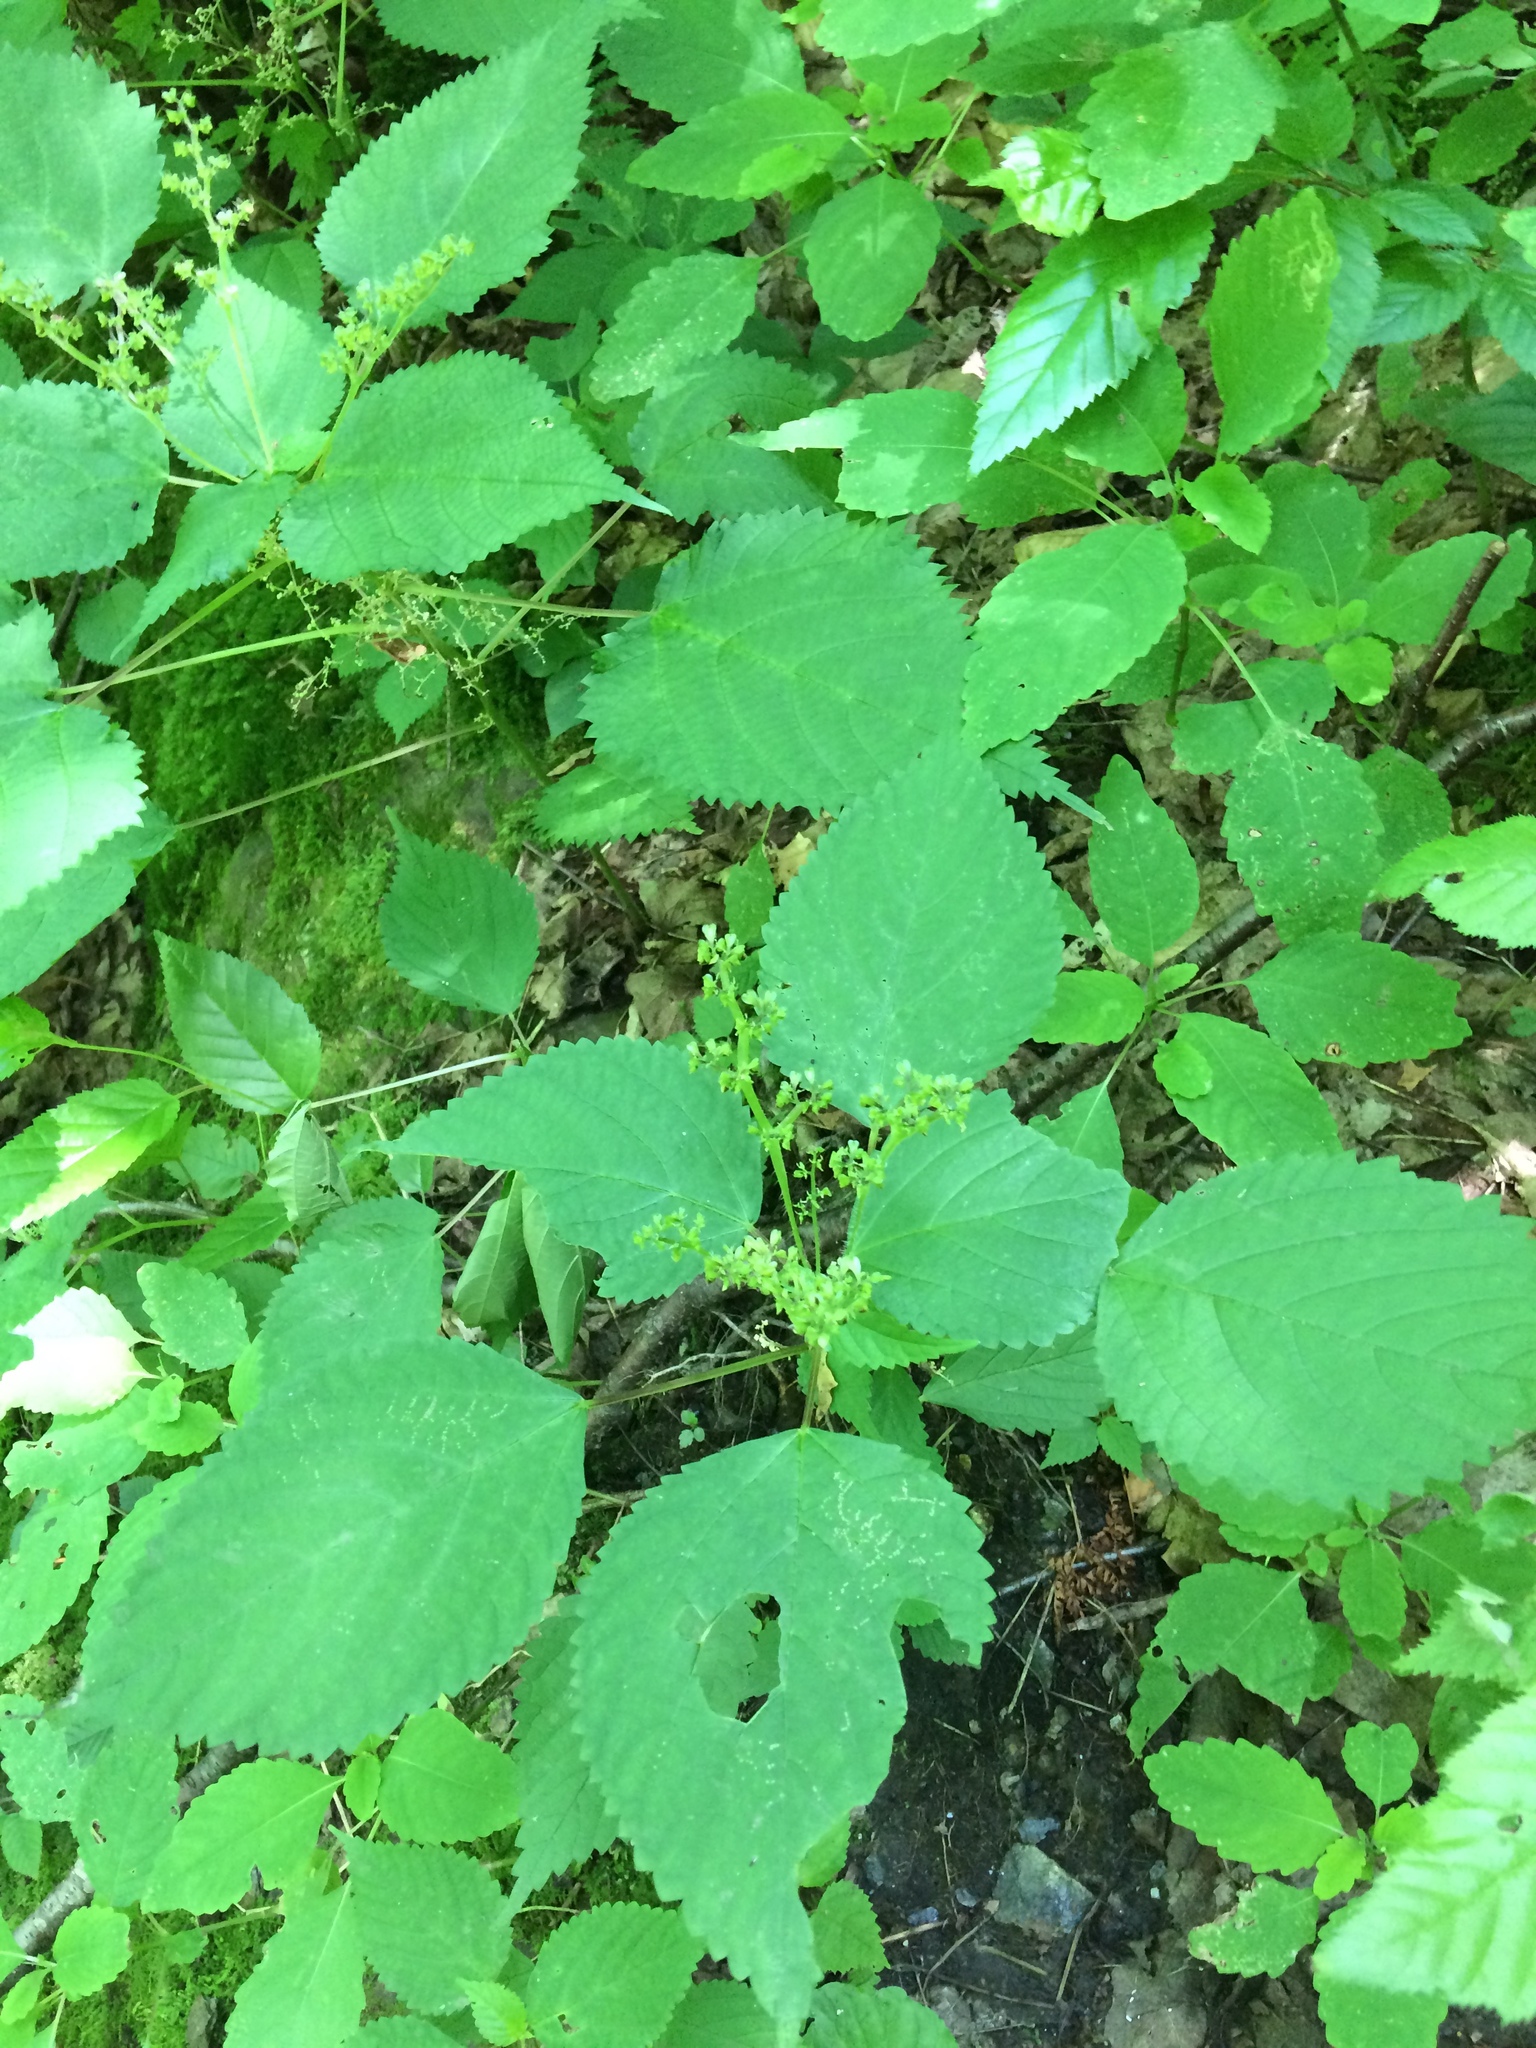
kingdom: Plantae
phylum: Tracheophyta
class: Magnoliopsida
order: Rosales
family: Urticaceae
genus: Laportea
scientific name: Laportea canadensis
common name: Canada nettle
